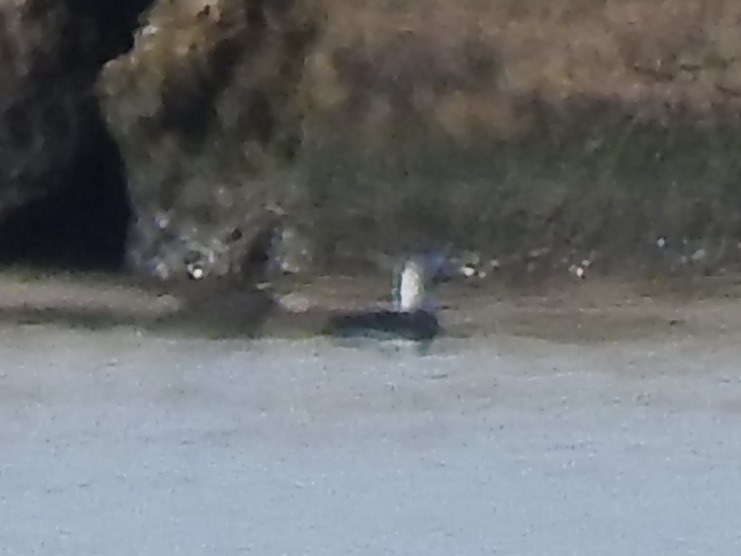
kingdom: Animalia
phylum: Chordata
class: Aves
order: Anseriformes
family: Anatidae
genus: Clangula
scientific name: Clangula hyemalis
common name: Long-tailed duck
